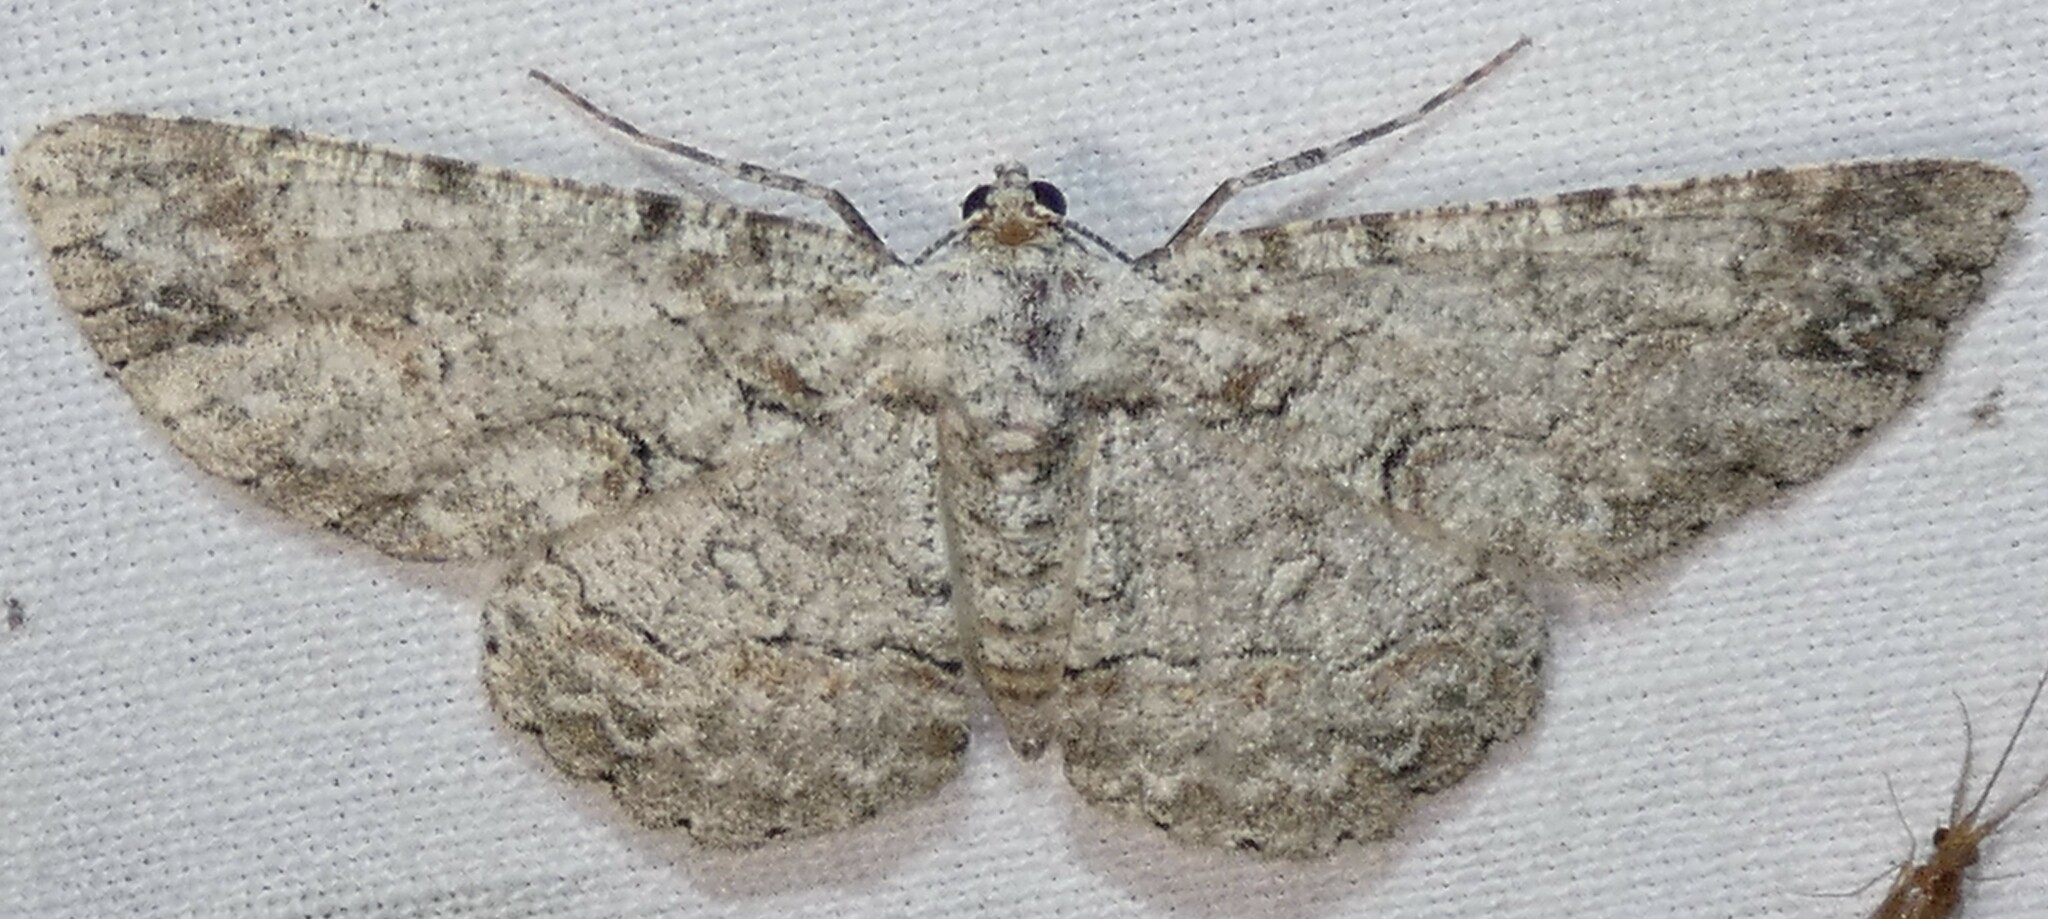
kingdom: Animalia
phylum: Arthropoda
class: Insecta
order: Lepidoptera
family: Geometridae
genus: Iridopsis
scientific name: Iridopsis defectaria
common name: Brown-shaded gray
